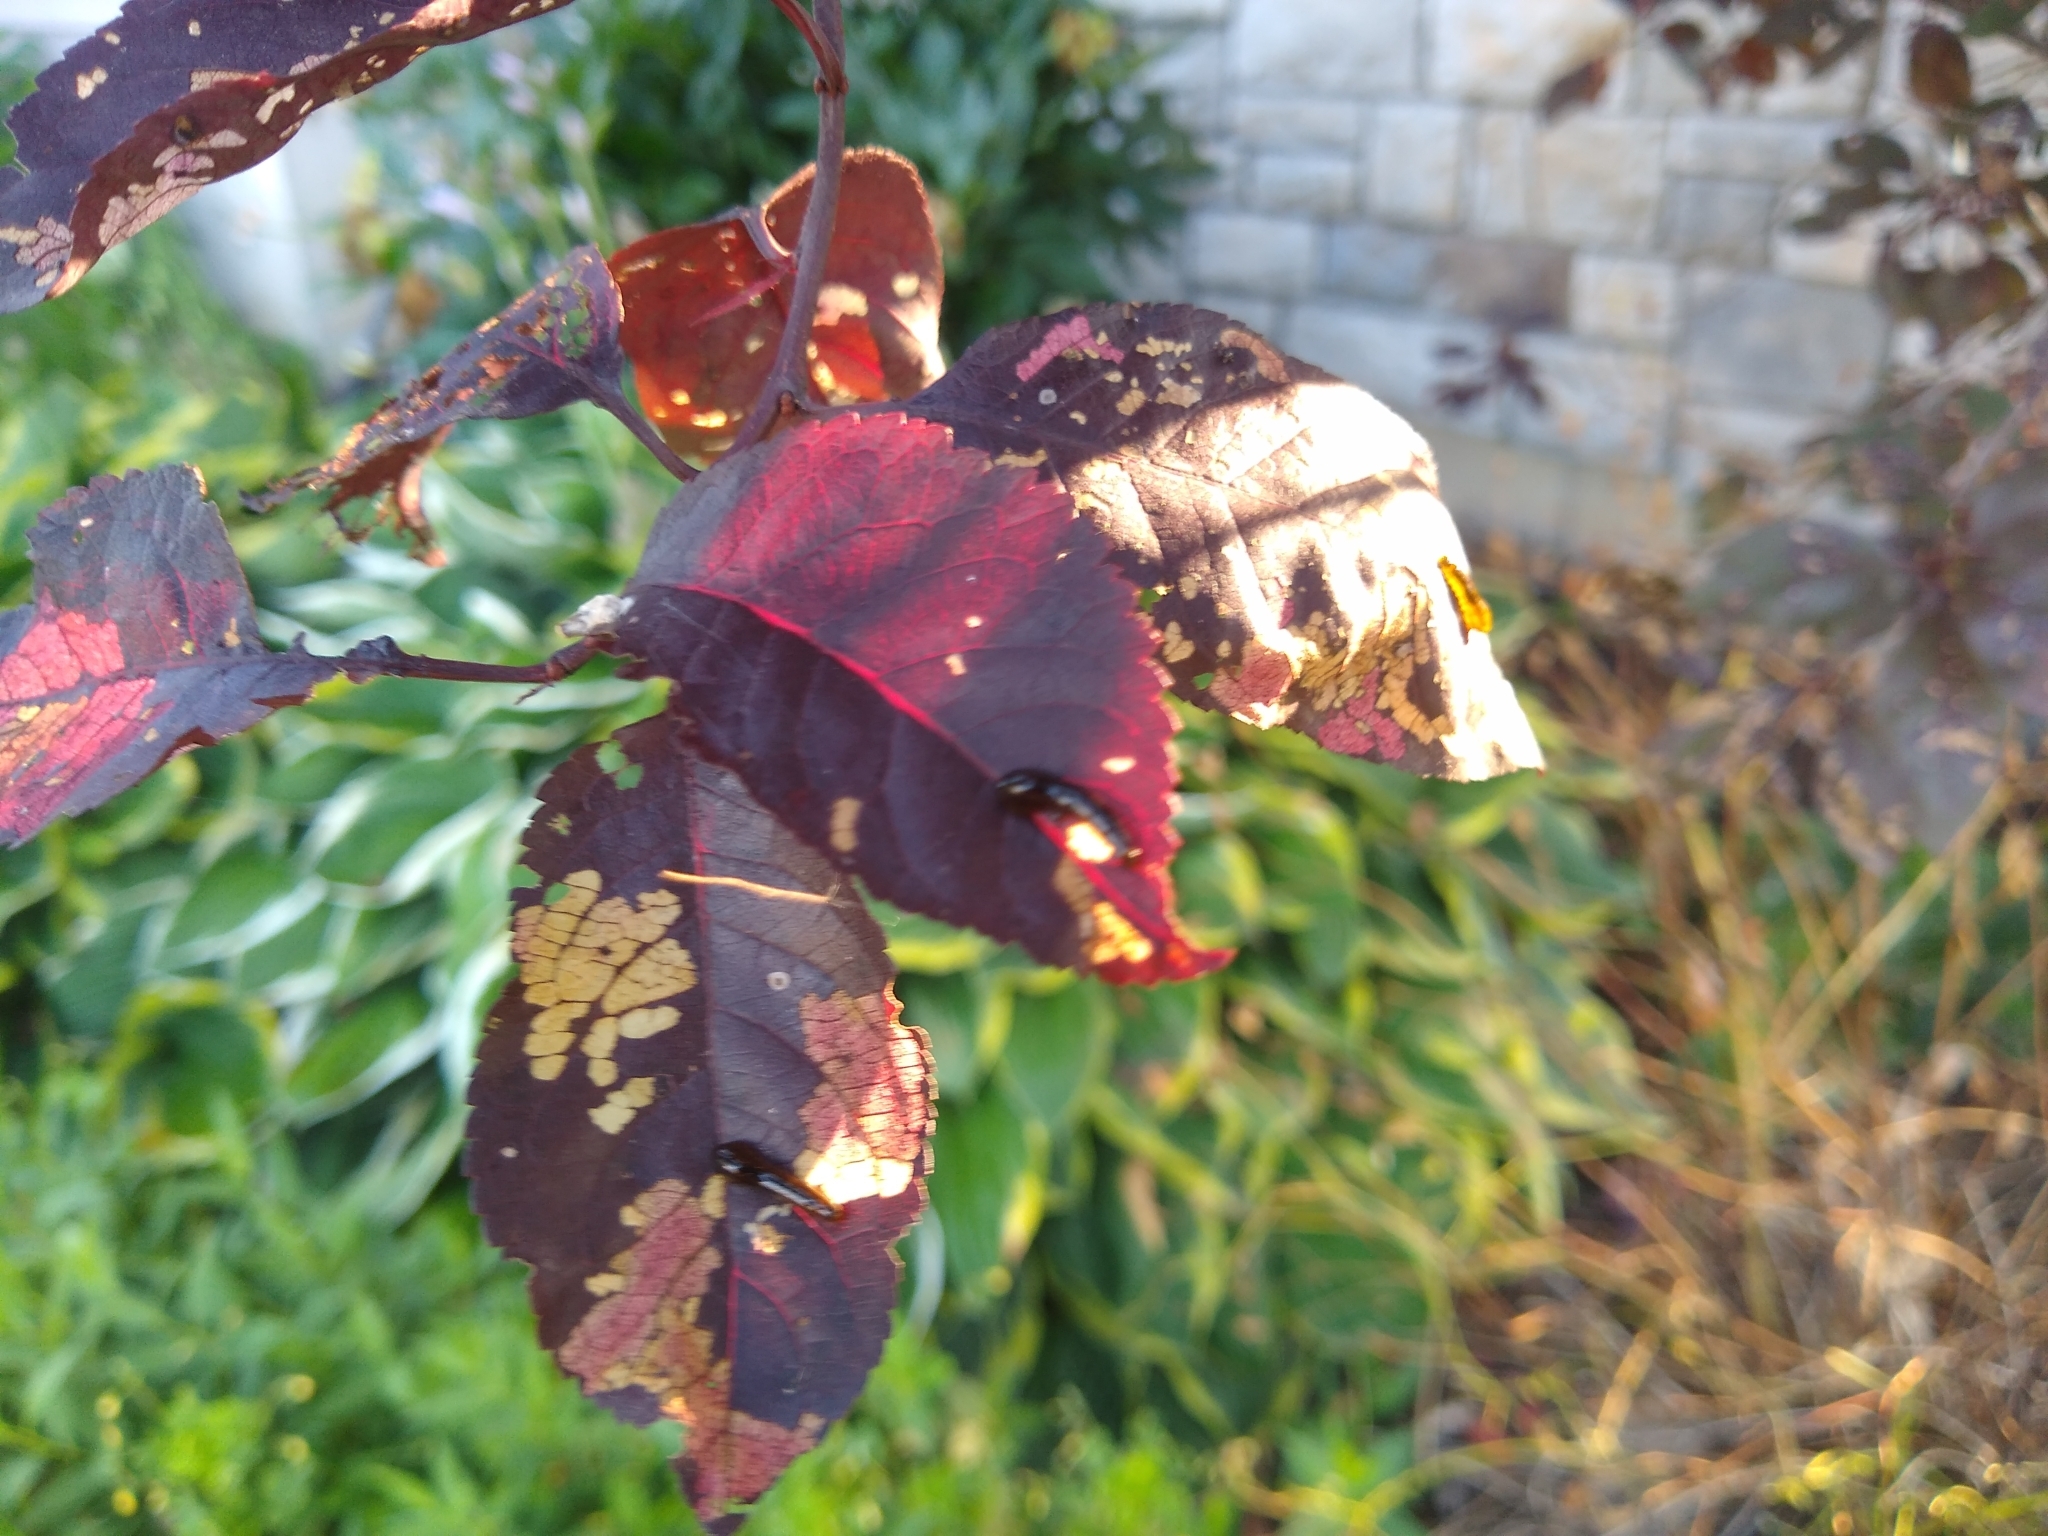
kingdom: Animalia
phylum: Arthropoda
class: Insecta
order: Hymenoptera
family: Tenthredinidae
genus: Caliroa
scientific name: Caliroa cerasi
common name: Pear sawfly
